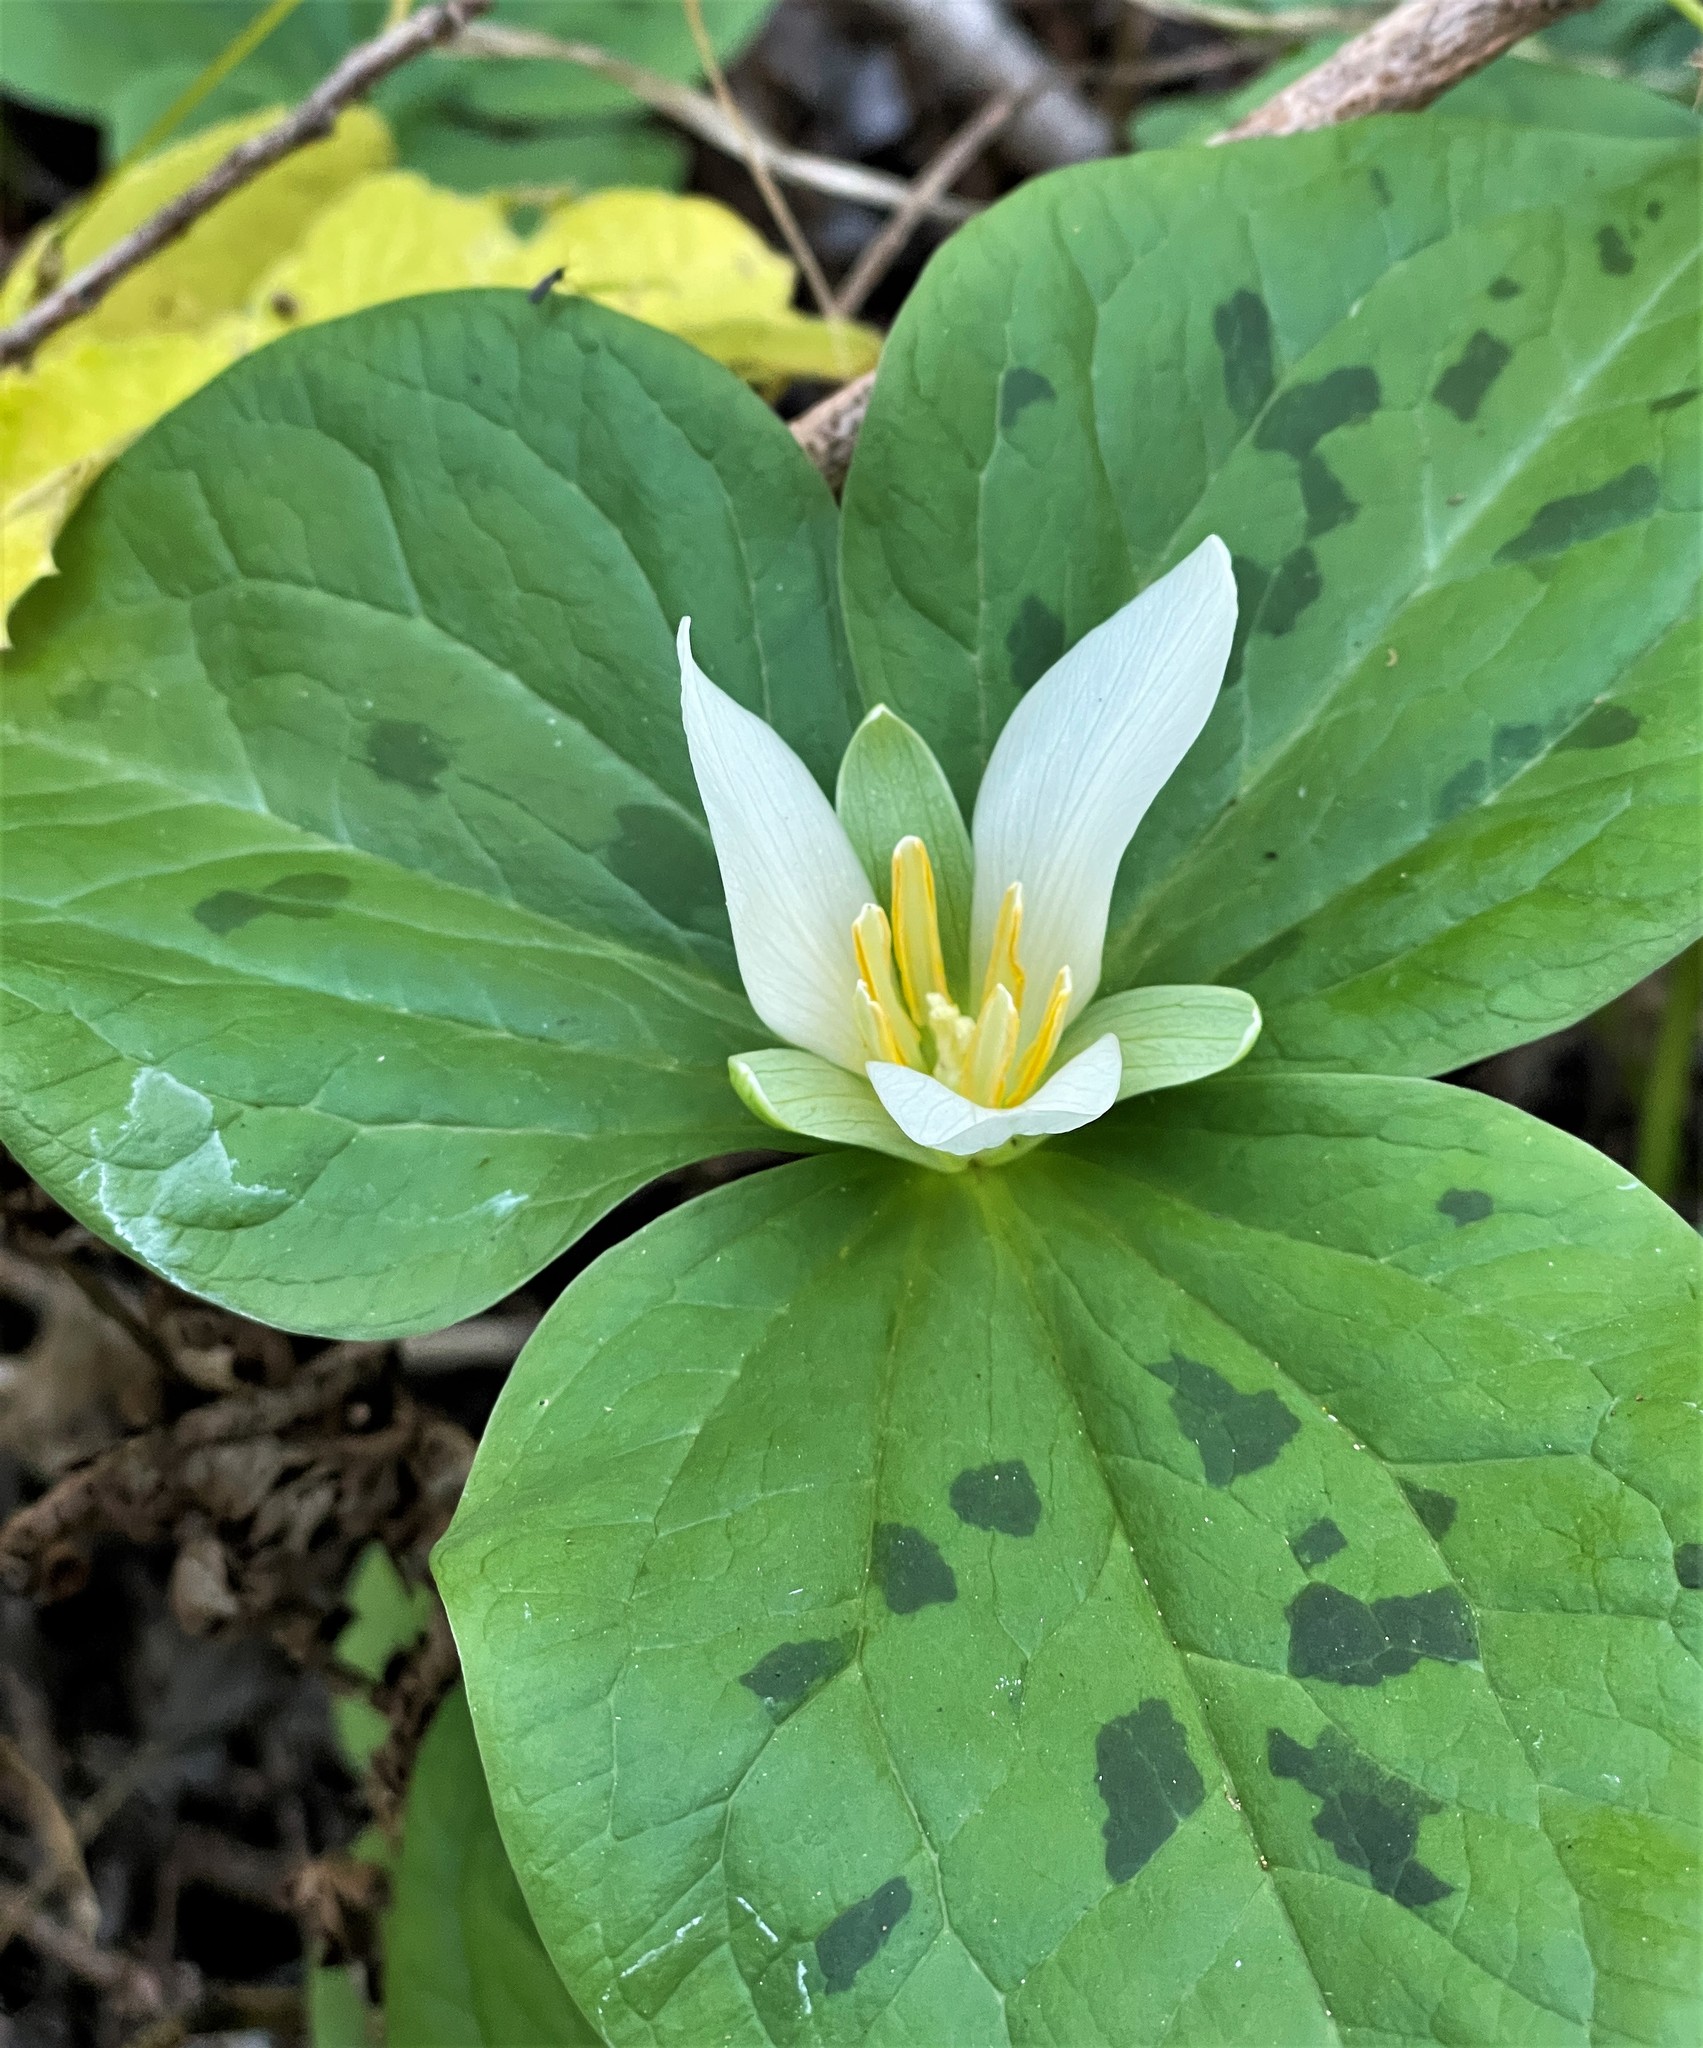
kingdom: Plantae
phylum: Tracheophyta
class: Liliopsida
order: Liliales
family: Melanthiaceae
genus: Trillium
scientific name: Trillium albidum
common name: Freeman's trillium
